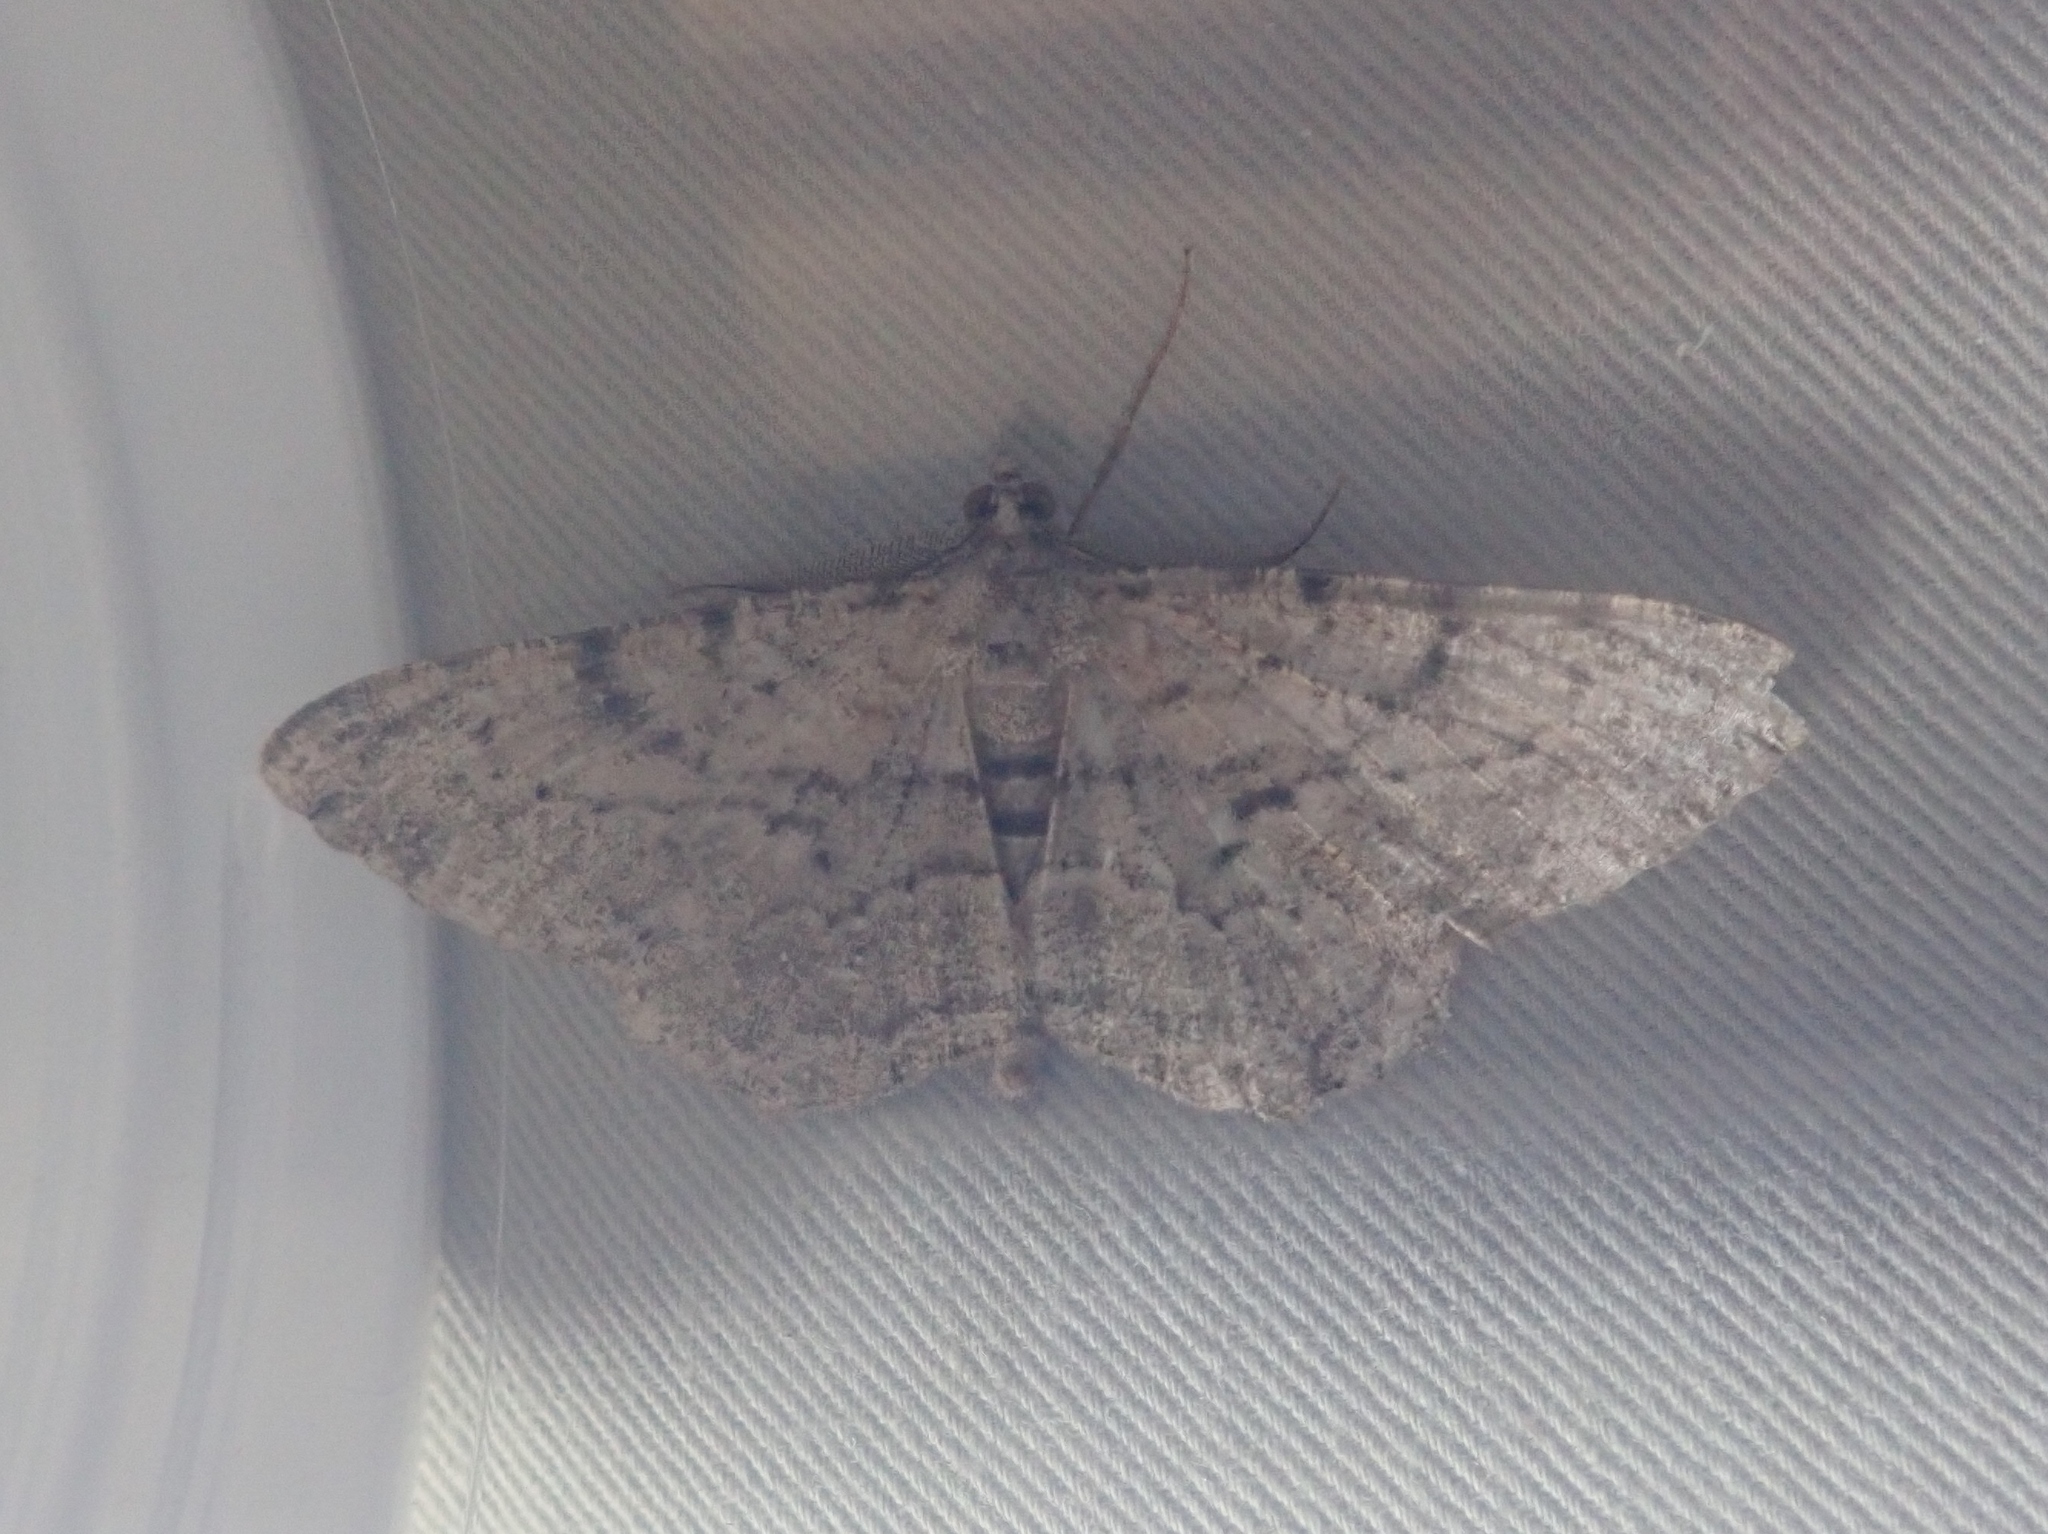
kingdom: Animalia
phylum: Arthropoda
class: Insecta
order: Lepidoptera
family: Geometridae
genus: Peribatodes
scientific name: Peribatodes rhomboidaria
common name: Willow beauty
